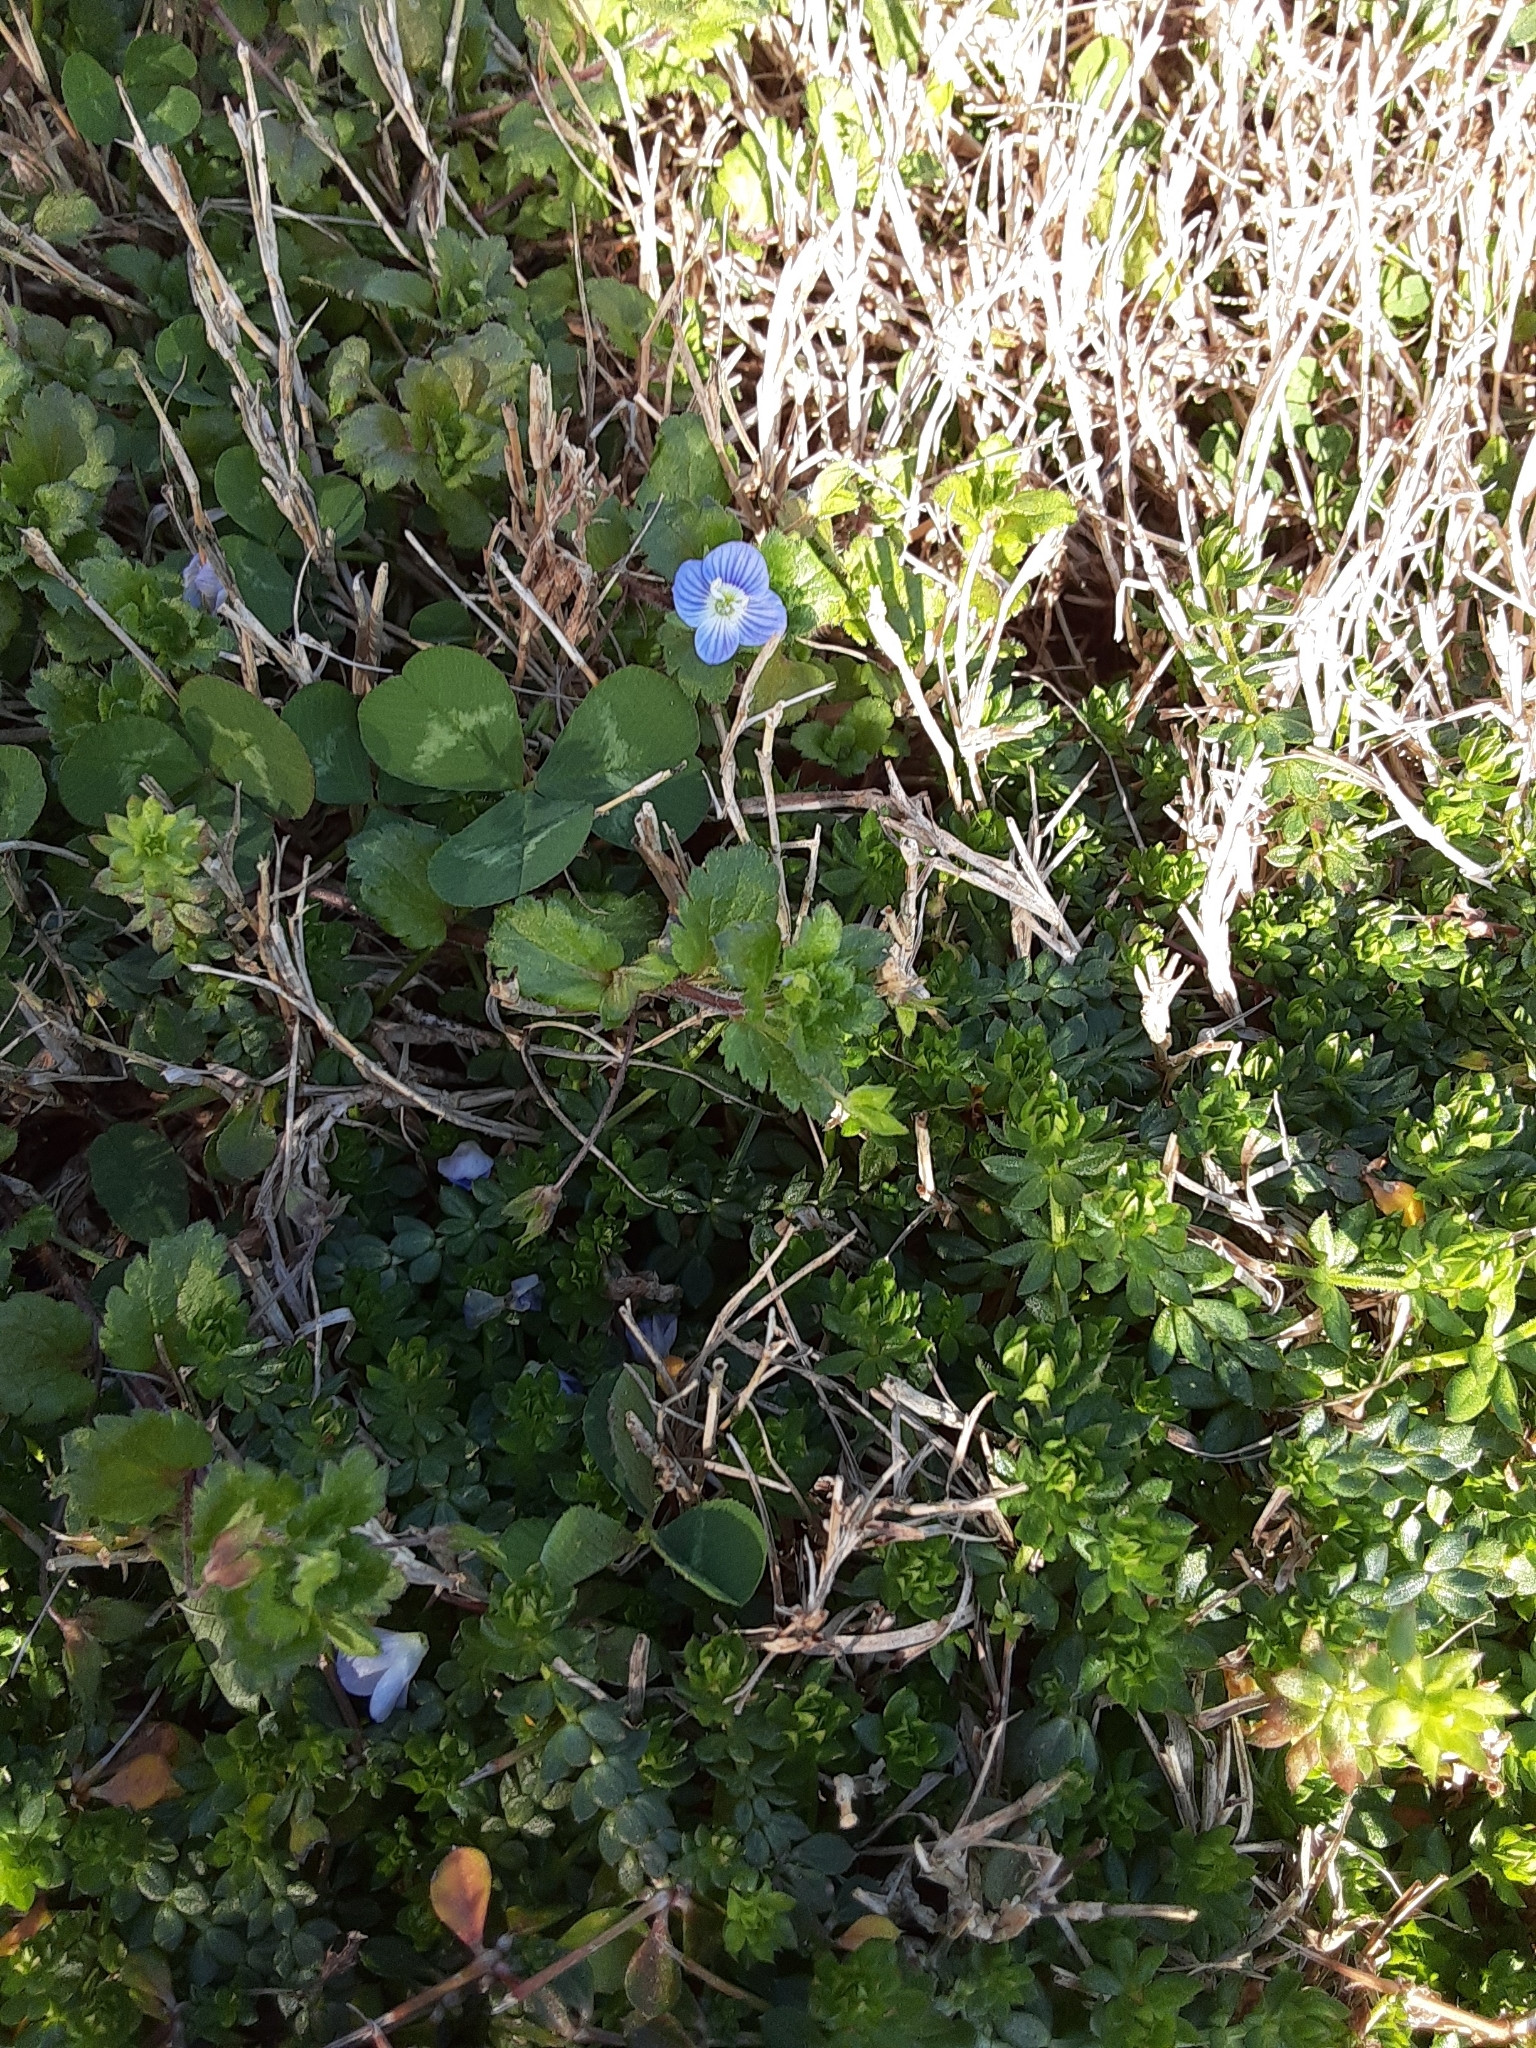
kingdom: Plantae
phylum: Tracheophyta
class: Magnoliopsida
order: Lamiales
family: Plantaginaceae
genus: Veronica
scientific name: Veronica persica
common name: Common field-speedwell
